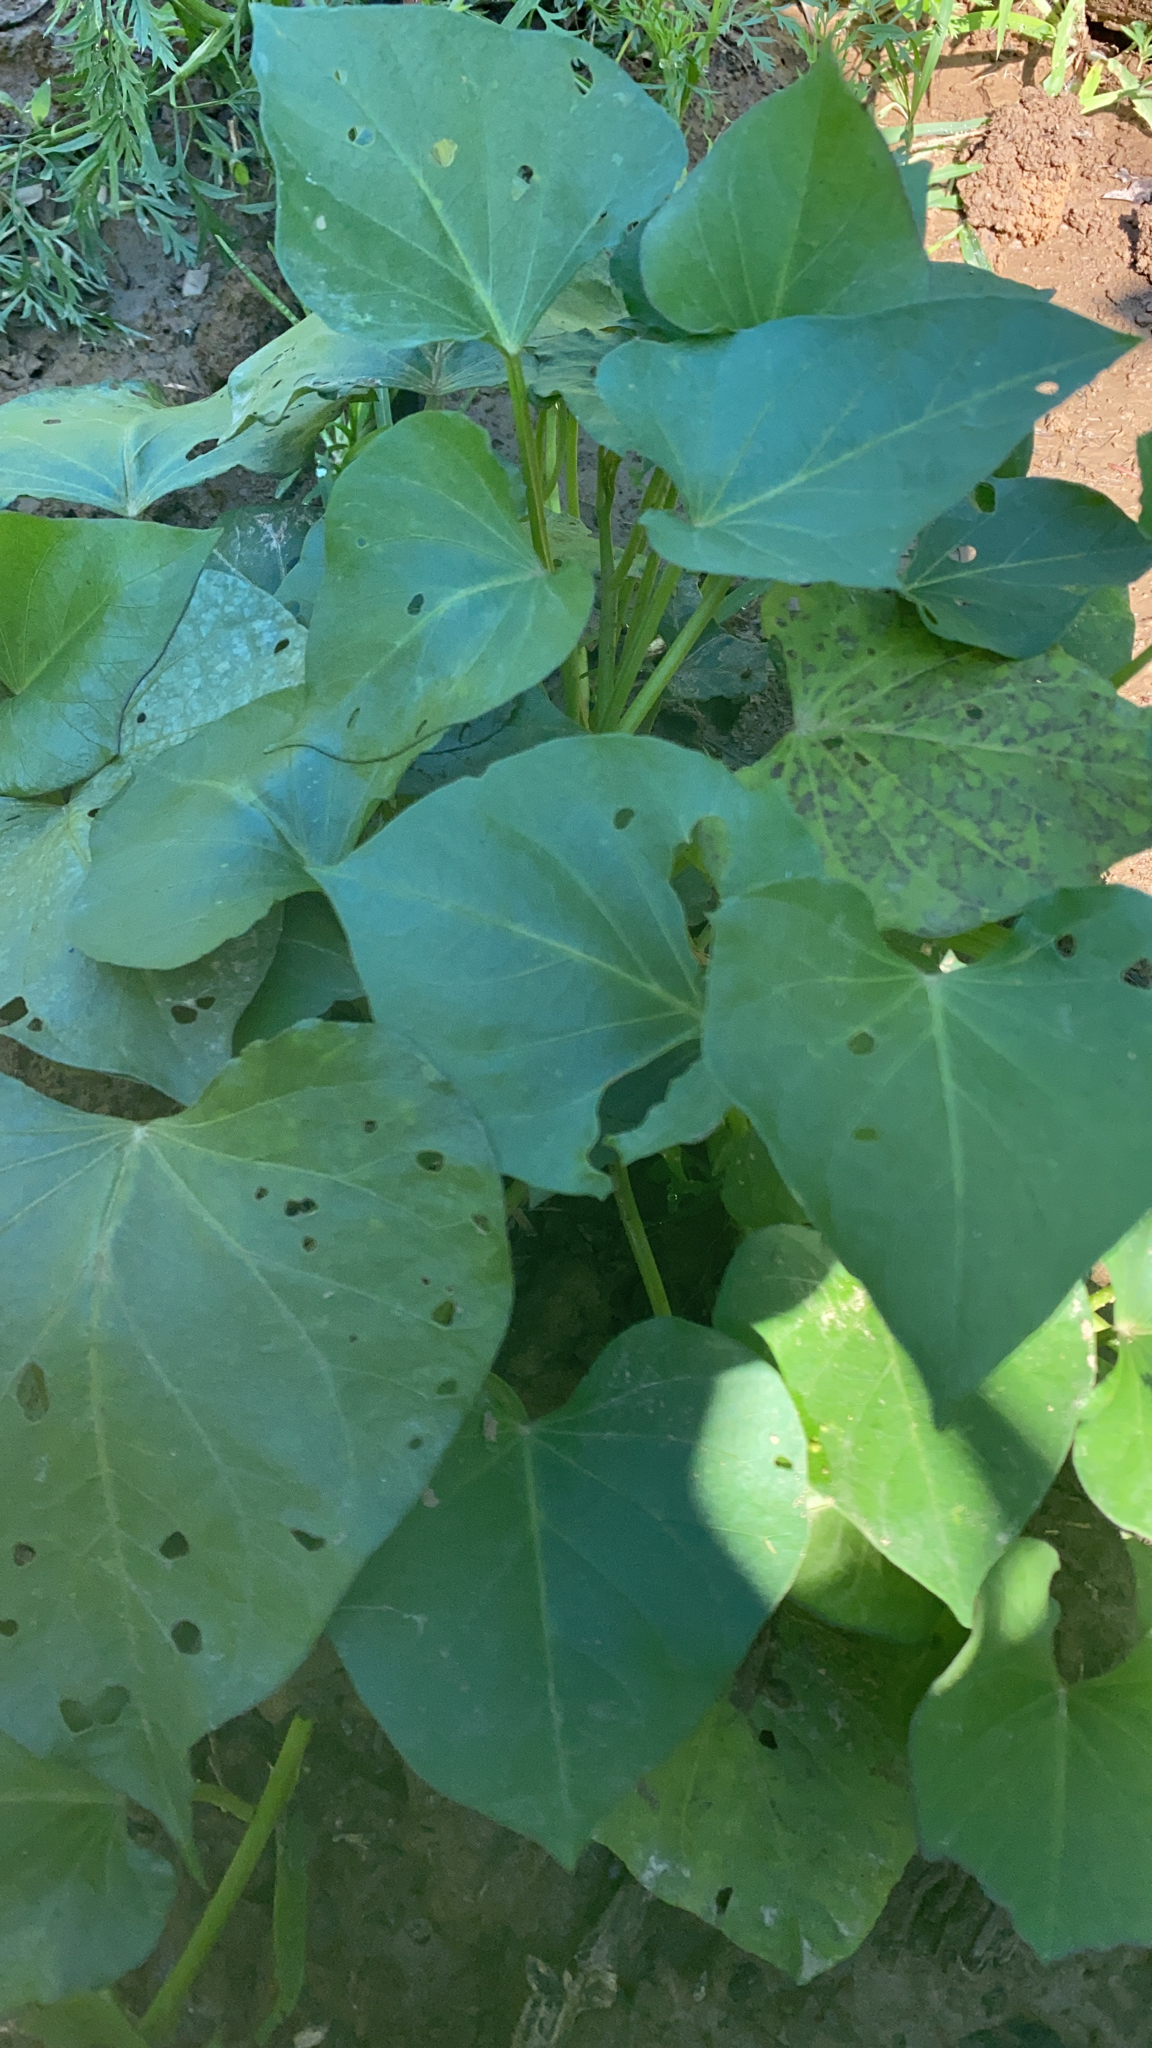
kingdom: Plantae
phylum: Tracheophyta
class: Magnoliopsida
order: Solanales
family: Convolvulaceae
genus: Ipomoea
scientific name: Ipomoea batatas
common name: Sweet-potato
